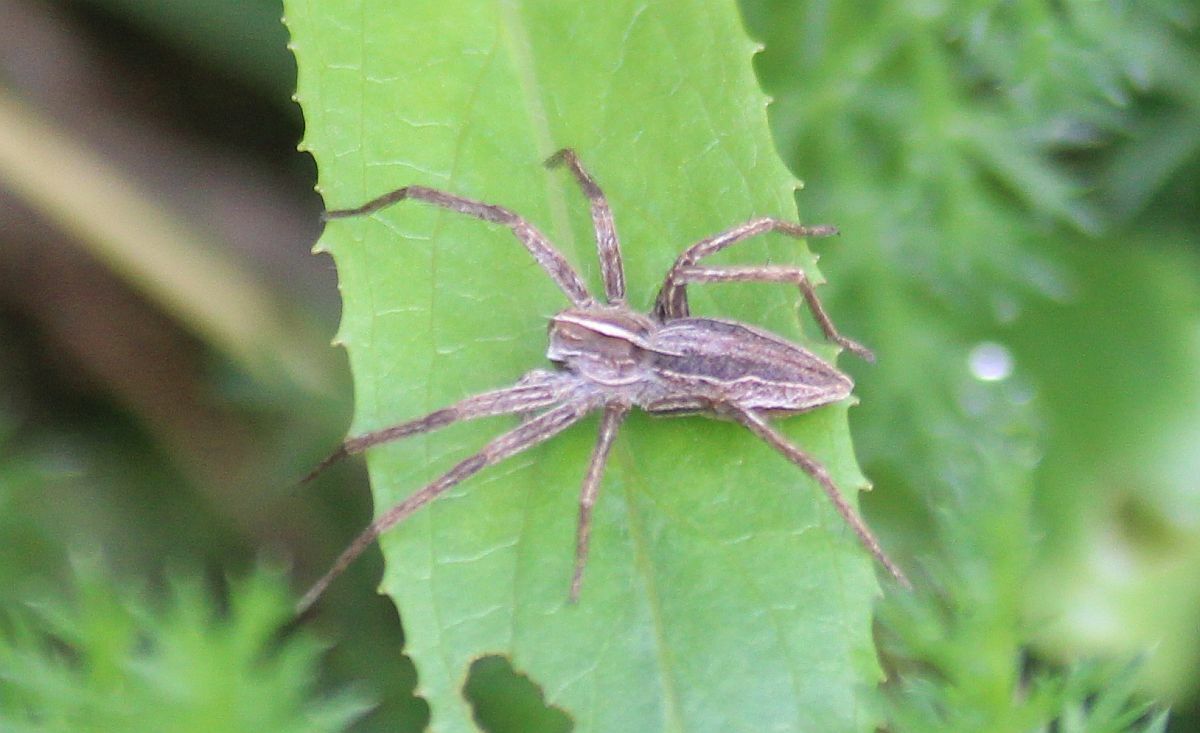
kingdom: Animalia
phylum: Arthropoda
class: Arachnida
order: Araneae
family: Pisauridae
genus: Pisaura
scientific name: Pisaura mirabilis
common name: Tent spider
